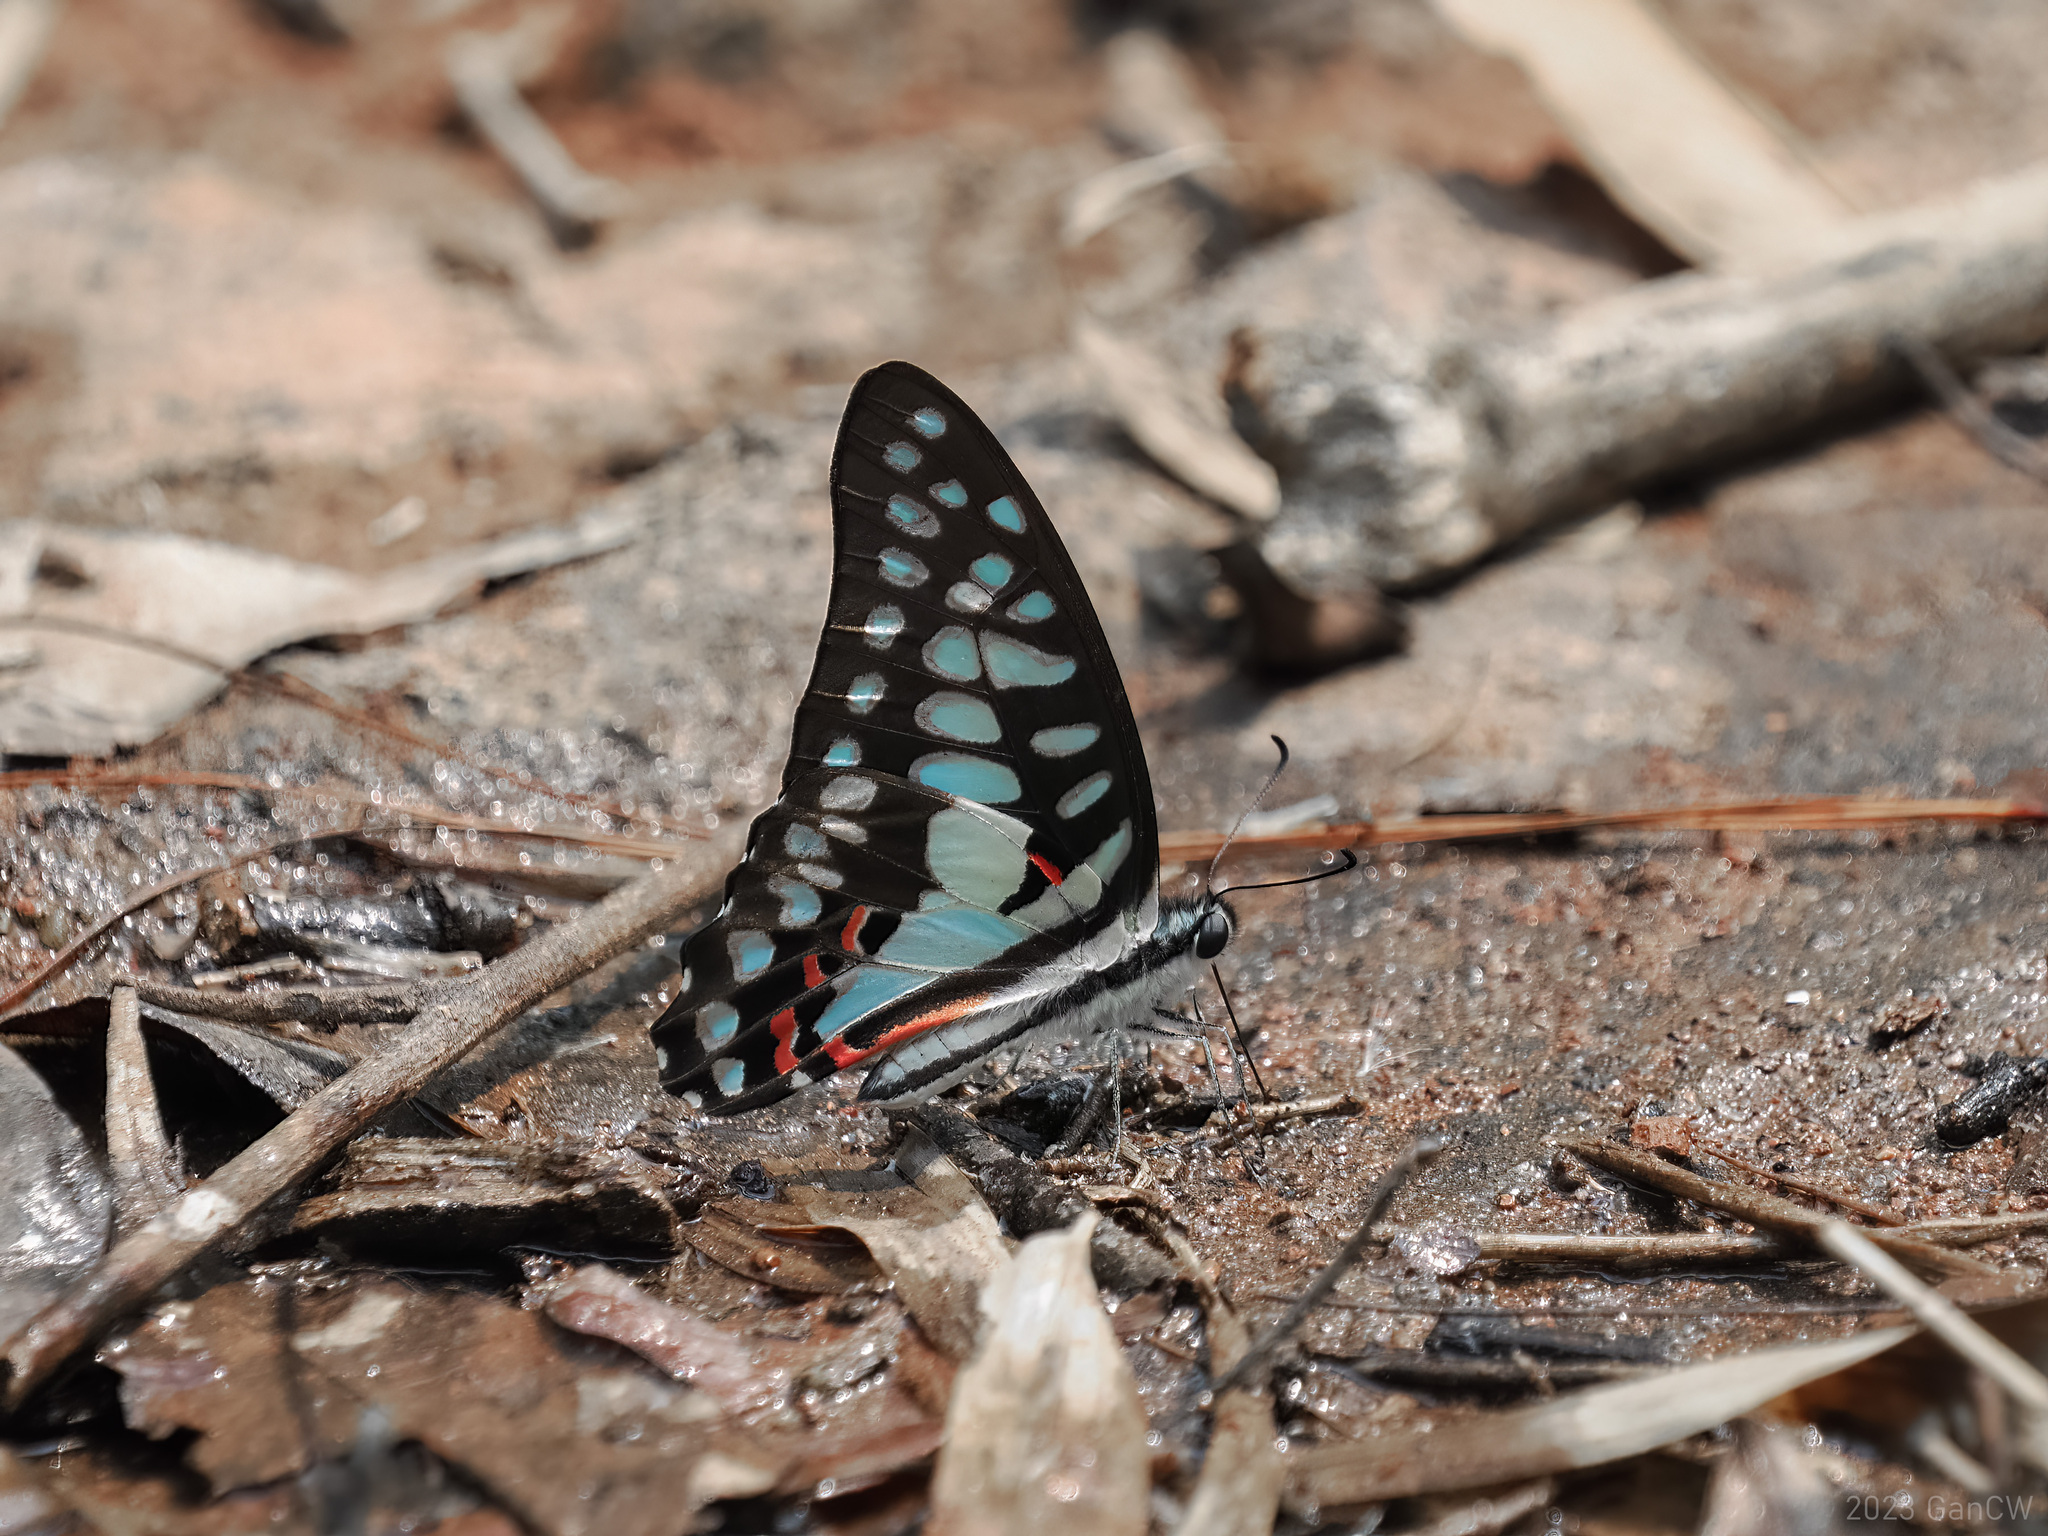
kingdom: Animalia
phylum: Arthropoda
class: Insecta
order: Lepidoptera
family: Papilionidae
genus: Graphium
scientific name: Graphium doson
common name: Common jay
